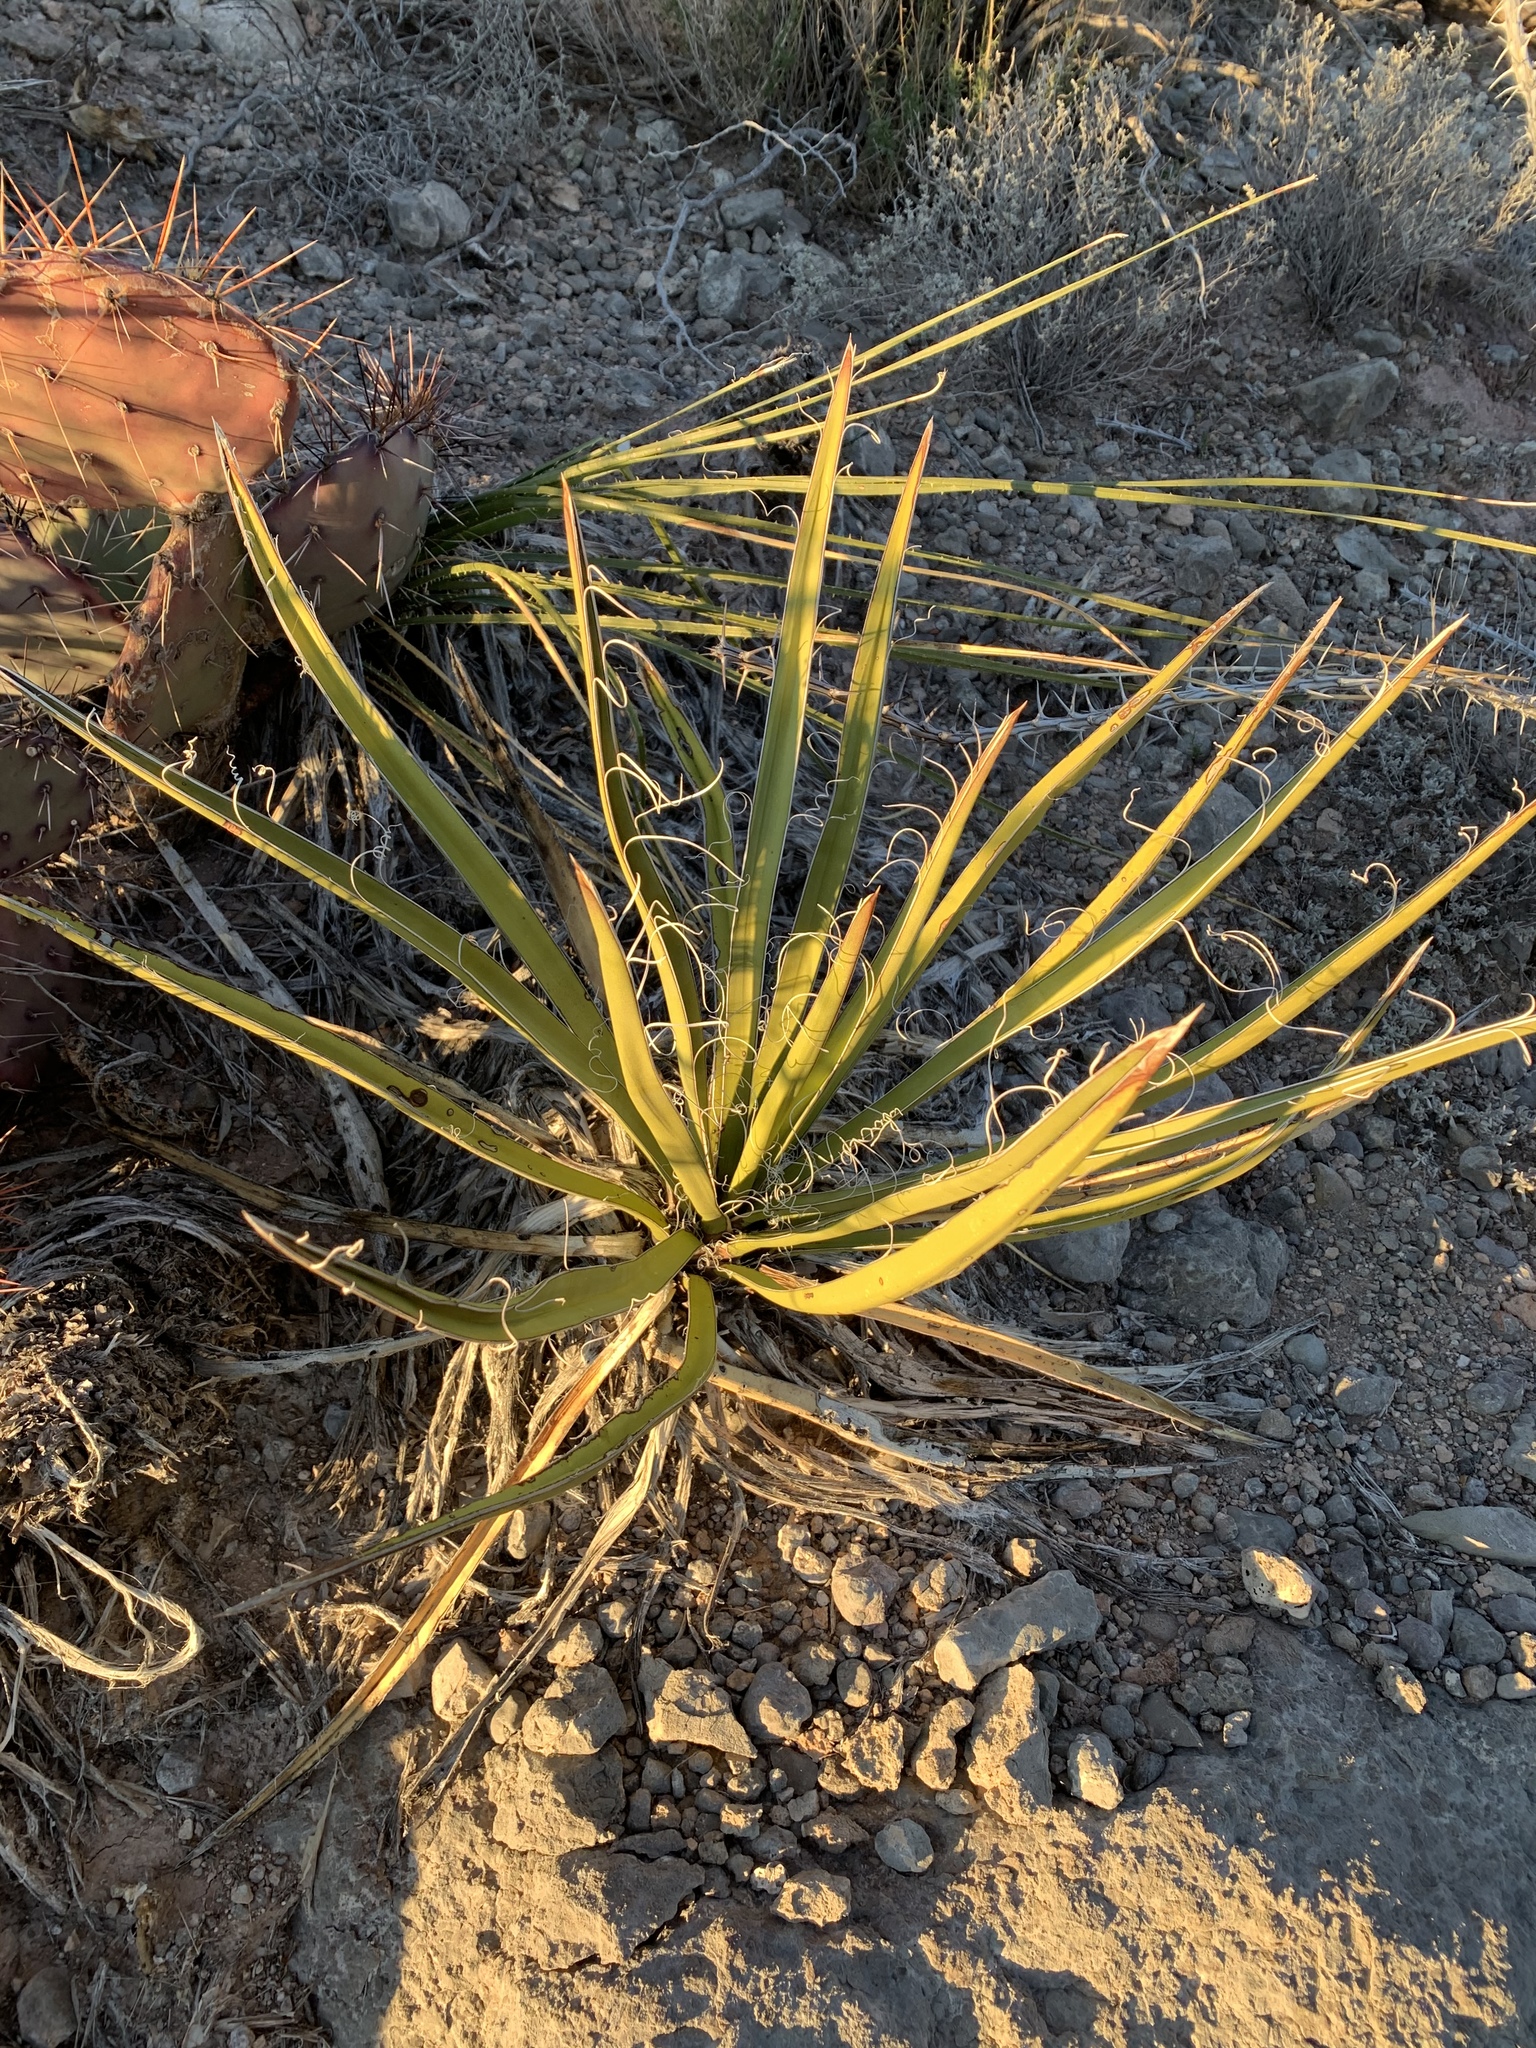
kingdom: Plantae
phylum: Tracheophyta
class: Liliopsida
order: Asparagales
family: Asparagaceae
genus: Yucca
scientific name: Yucca baccata
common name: Banana yucca
